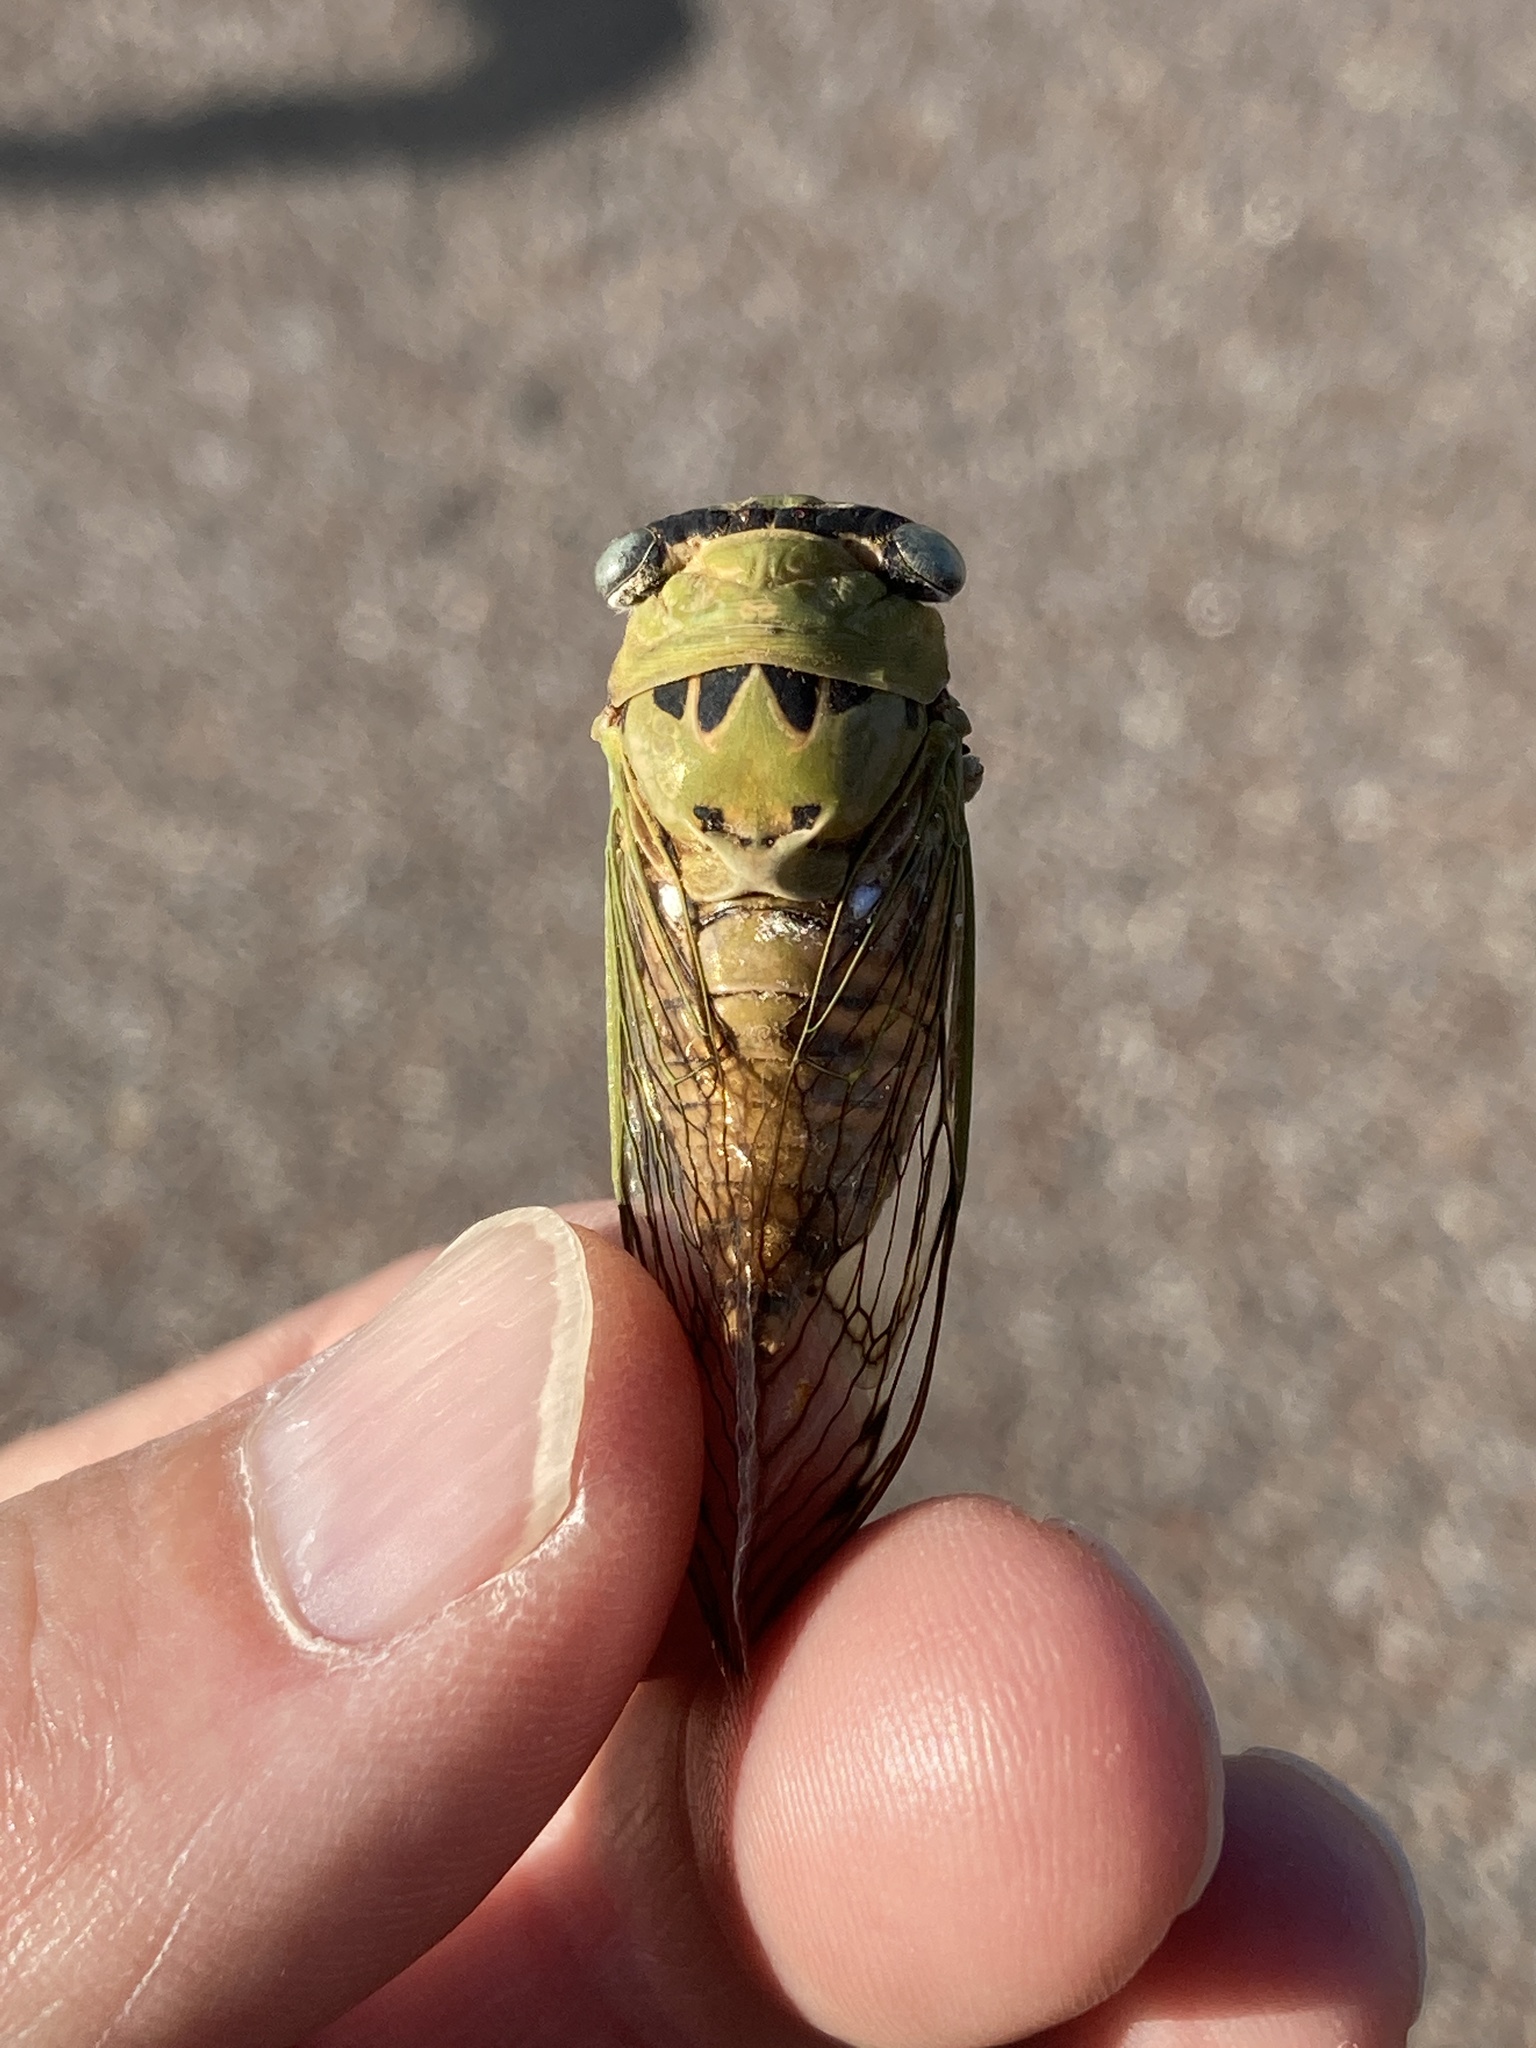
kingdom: Animalia
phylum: Arthropoda
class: Insecta
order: Hemiptera
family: Cicadidae
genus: Neotibicen
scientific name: Neotibicen superbus
